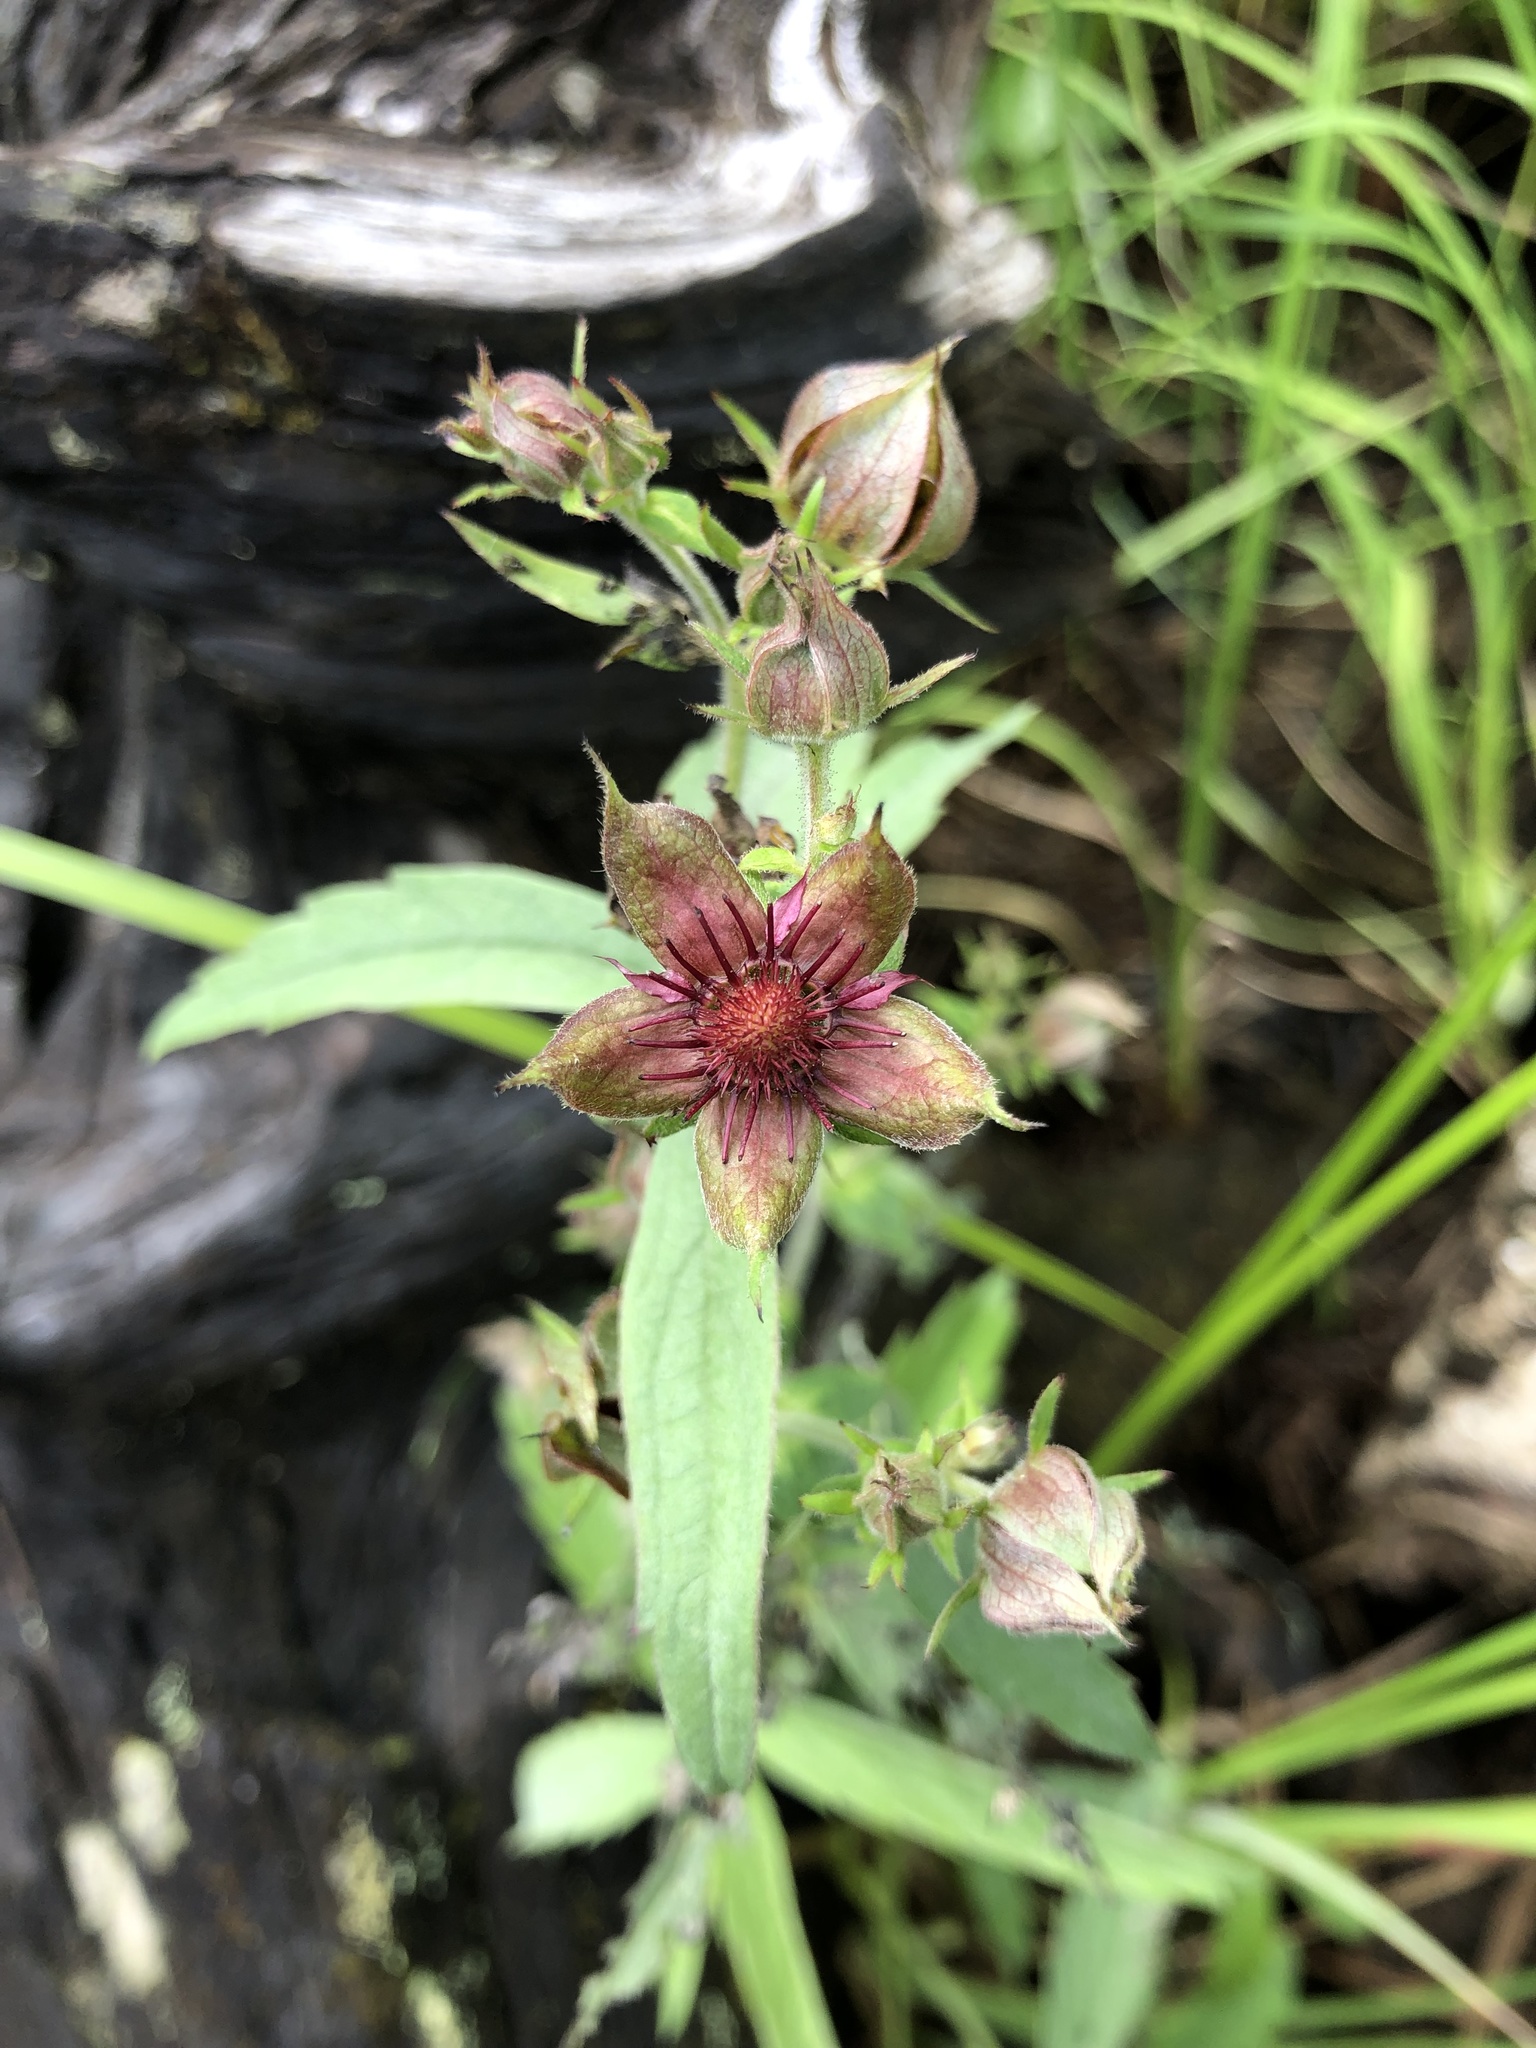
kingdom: Plantae
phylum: Tracheophyta
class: Magnoliopsida
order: Rosales
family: Rosaceae
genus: Comarum
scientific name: Comarum palustre
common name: Marsh cinquefoil
